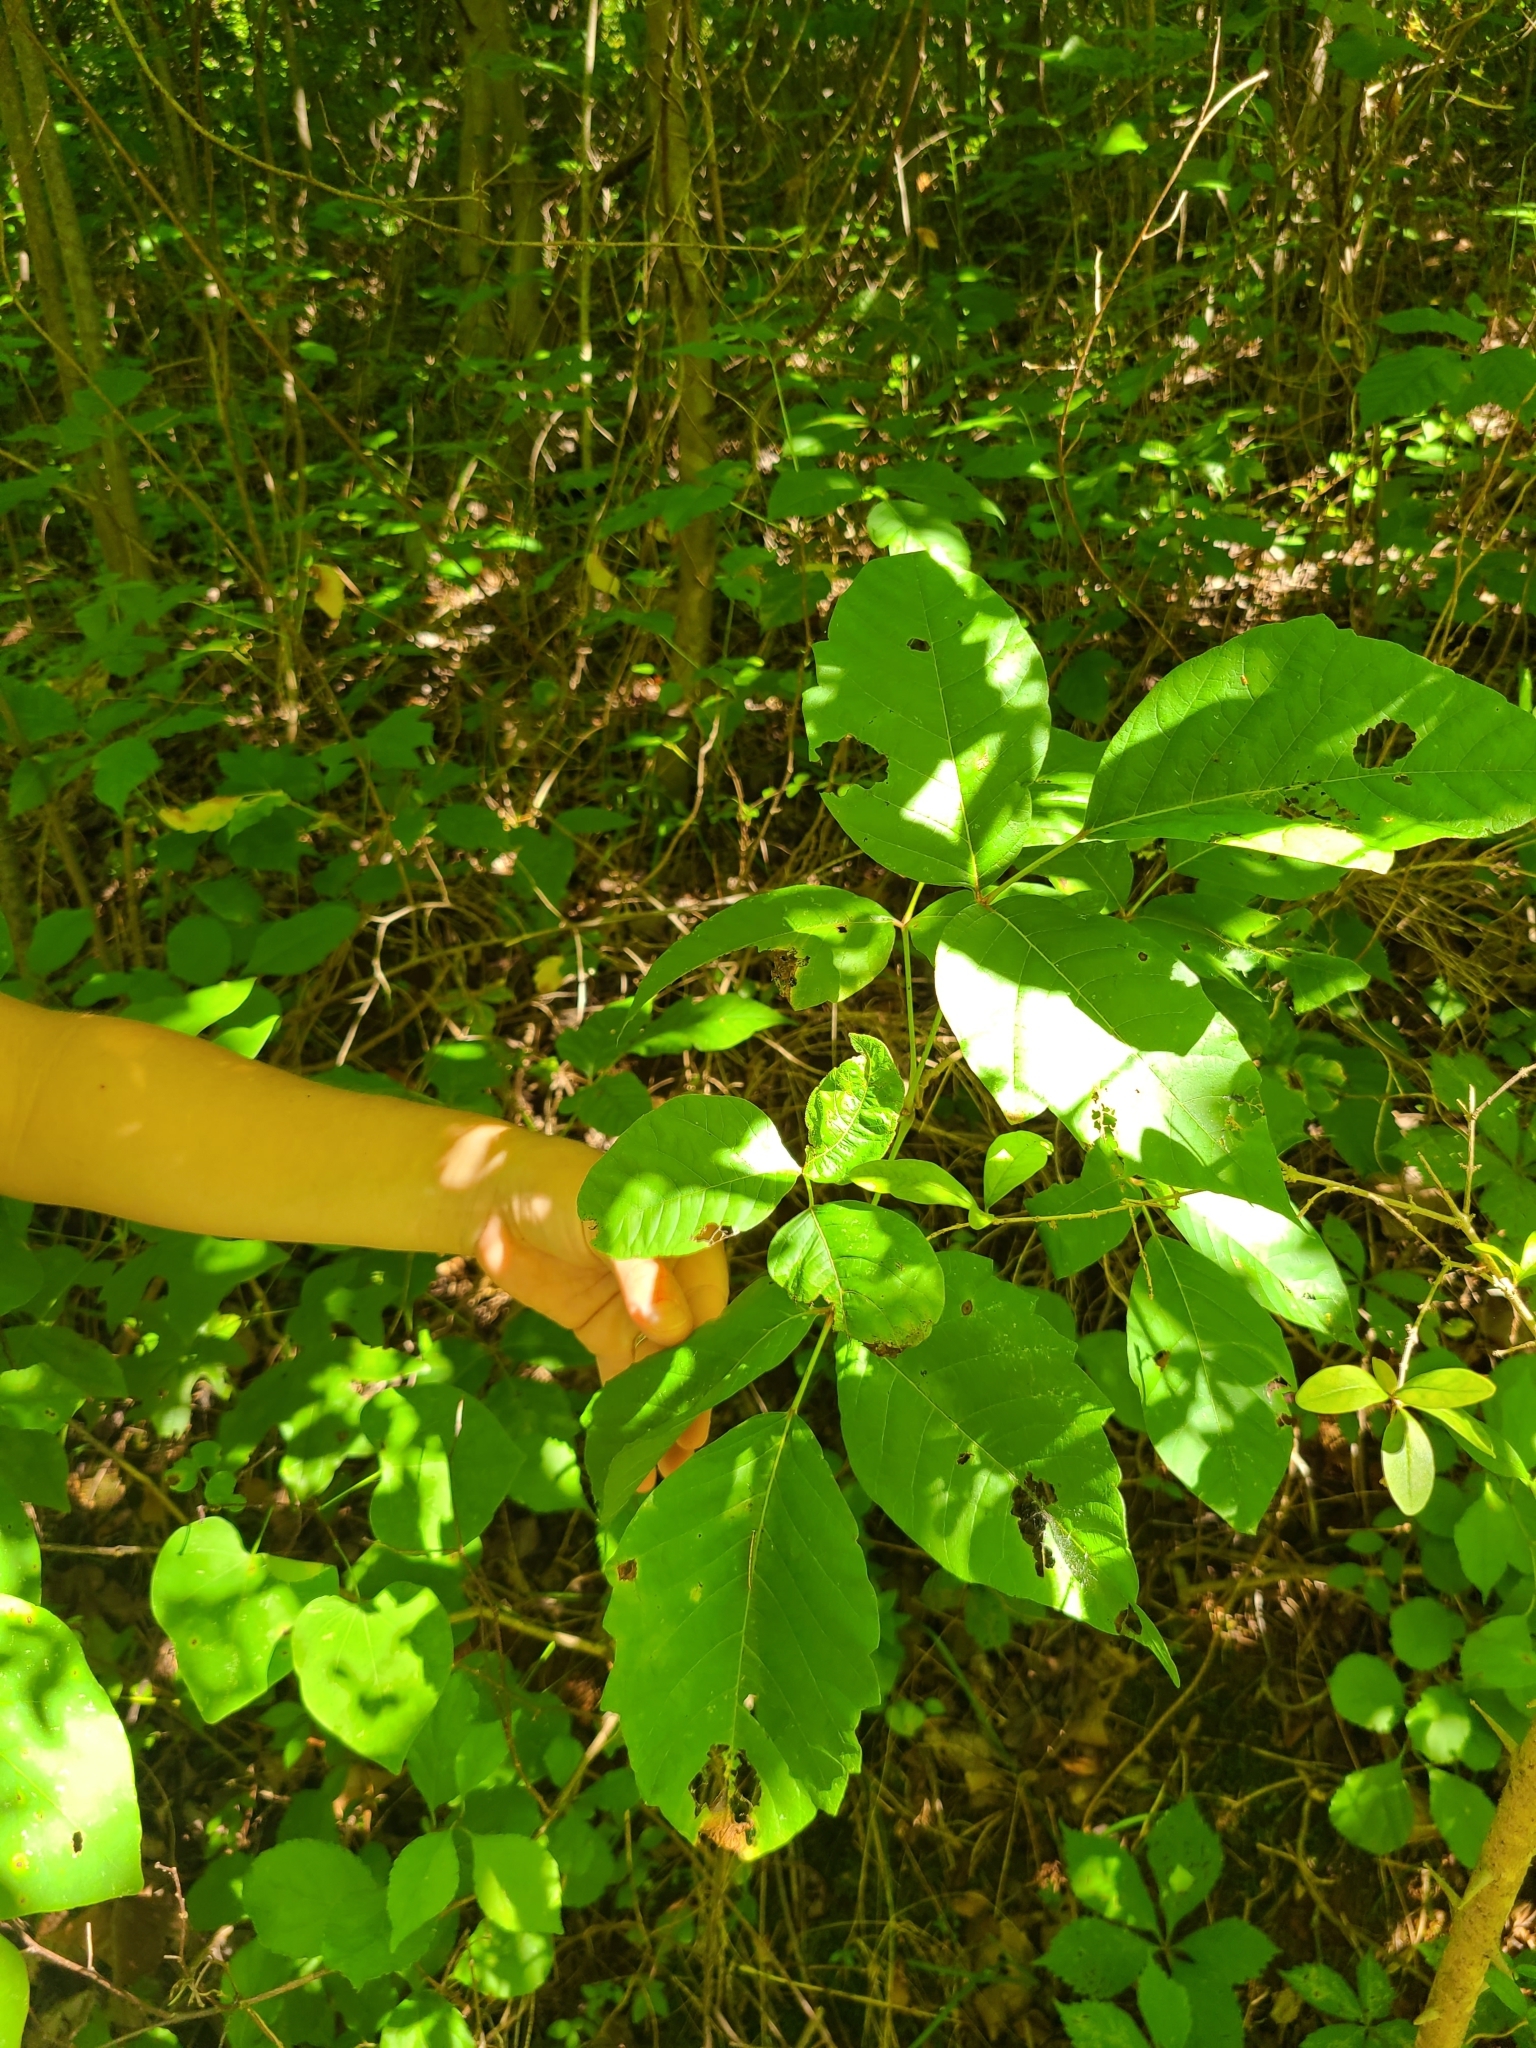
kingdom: Animalia
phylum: Arthropoda
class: Insecta
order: Lepidoptera
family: Pyralidae
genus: Epipaschia
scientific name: Epipaschia superatalis
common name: Dimorphic macalla moth
